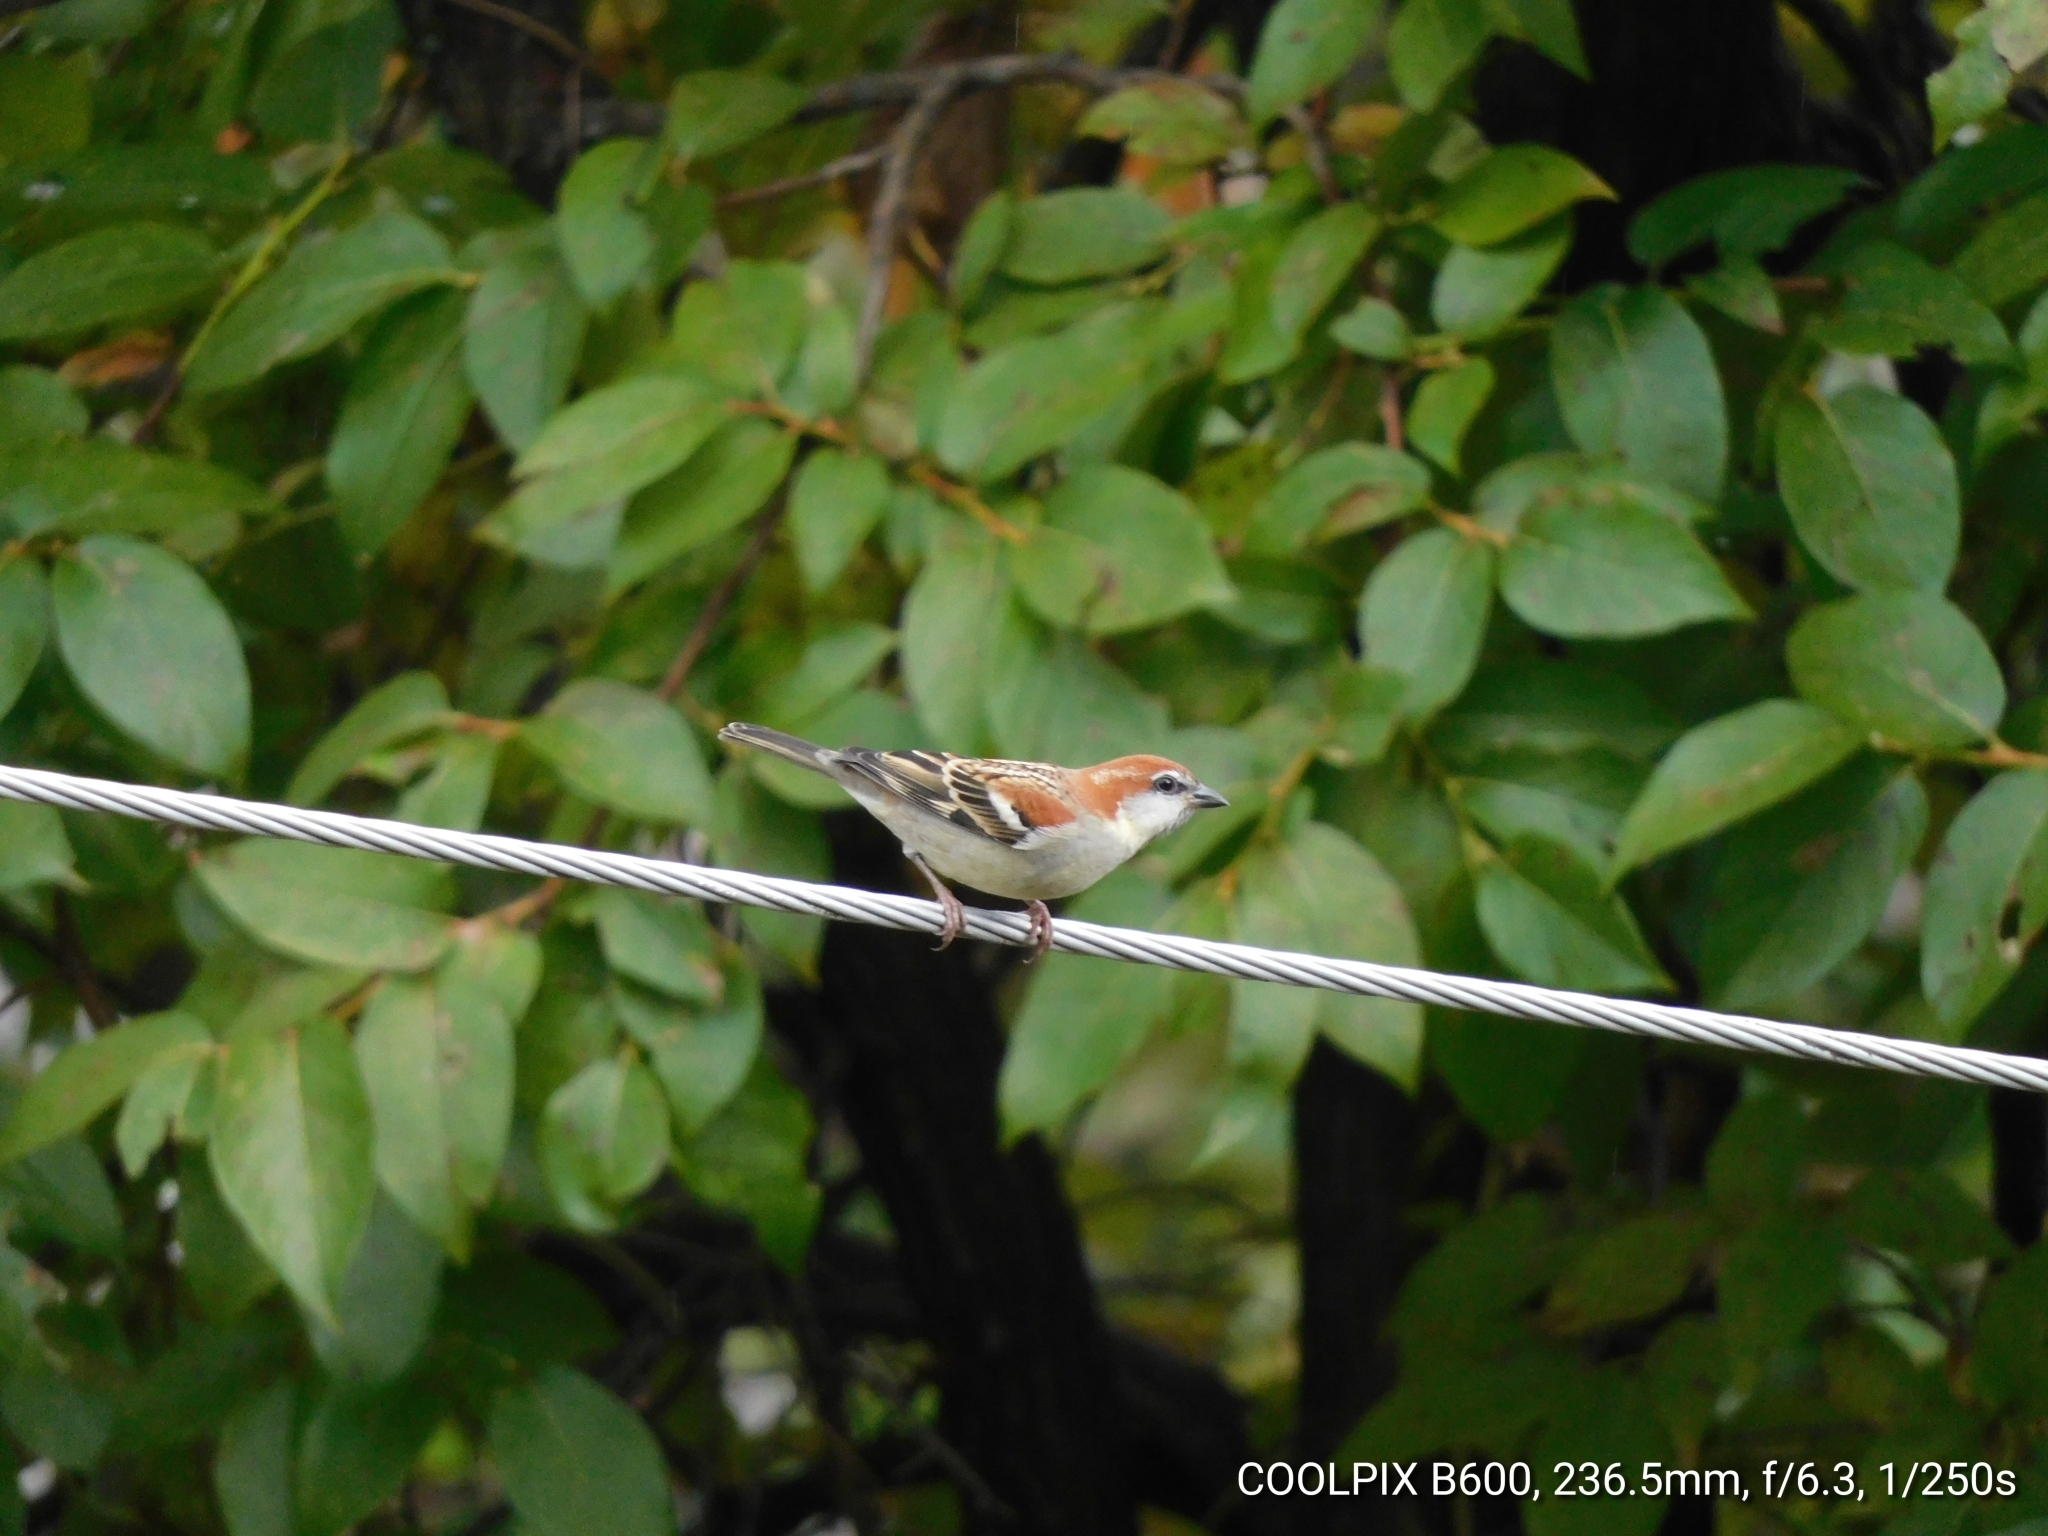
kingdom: Animalia
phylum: Chordata
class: Aves
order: Passeriformes
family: Passeridae
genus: Passer
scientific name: Passer cinnamomeus
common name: Russet sparrow
